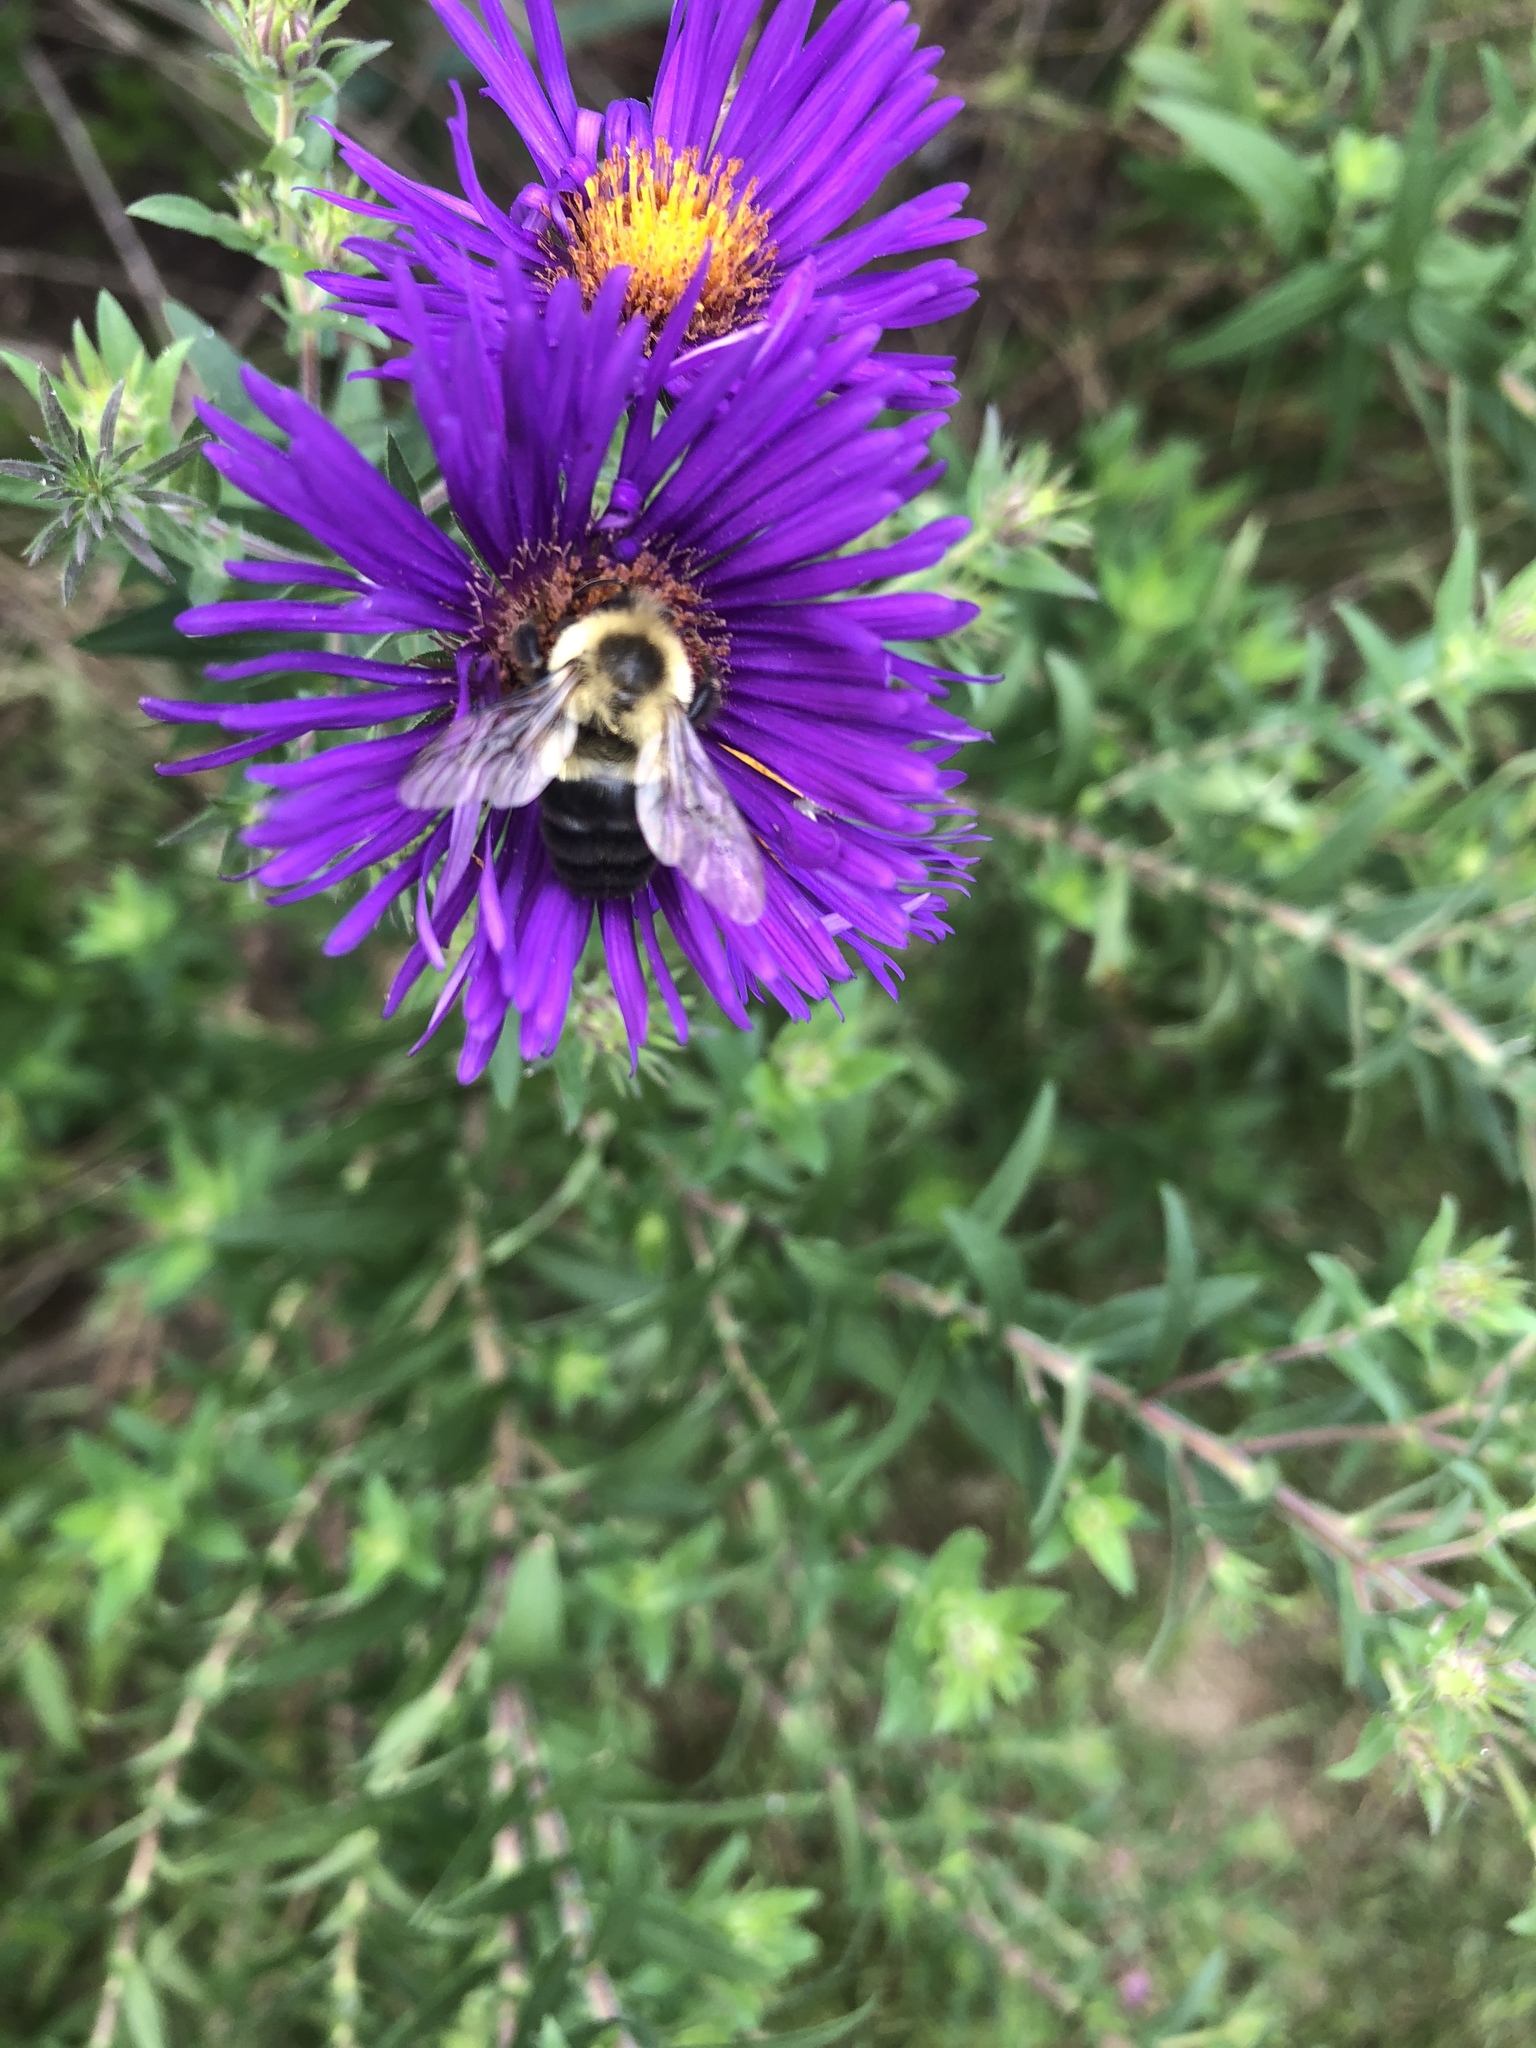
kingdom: Animalia
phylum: Arthropoda
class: Insecta
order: Hymenoptera
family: Apidae
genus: Bombus
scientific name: Bombus impatiens
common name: Common eastern bumble bee
